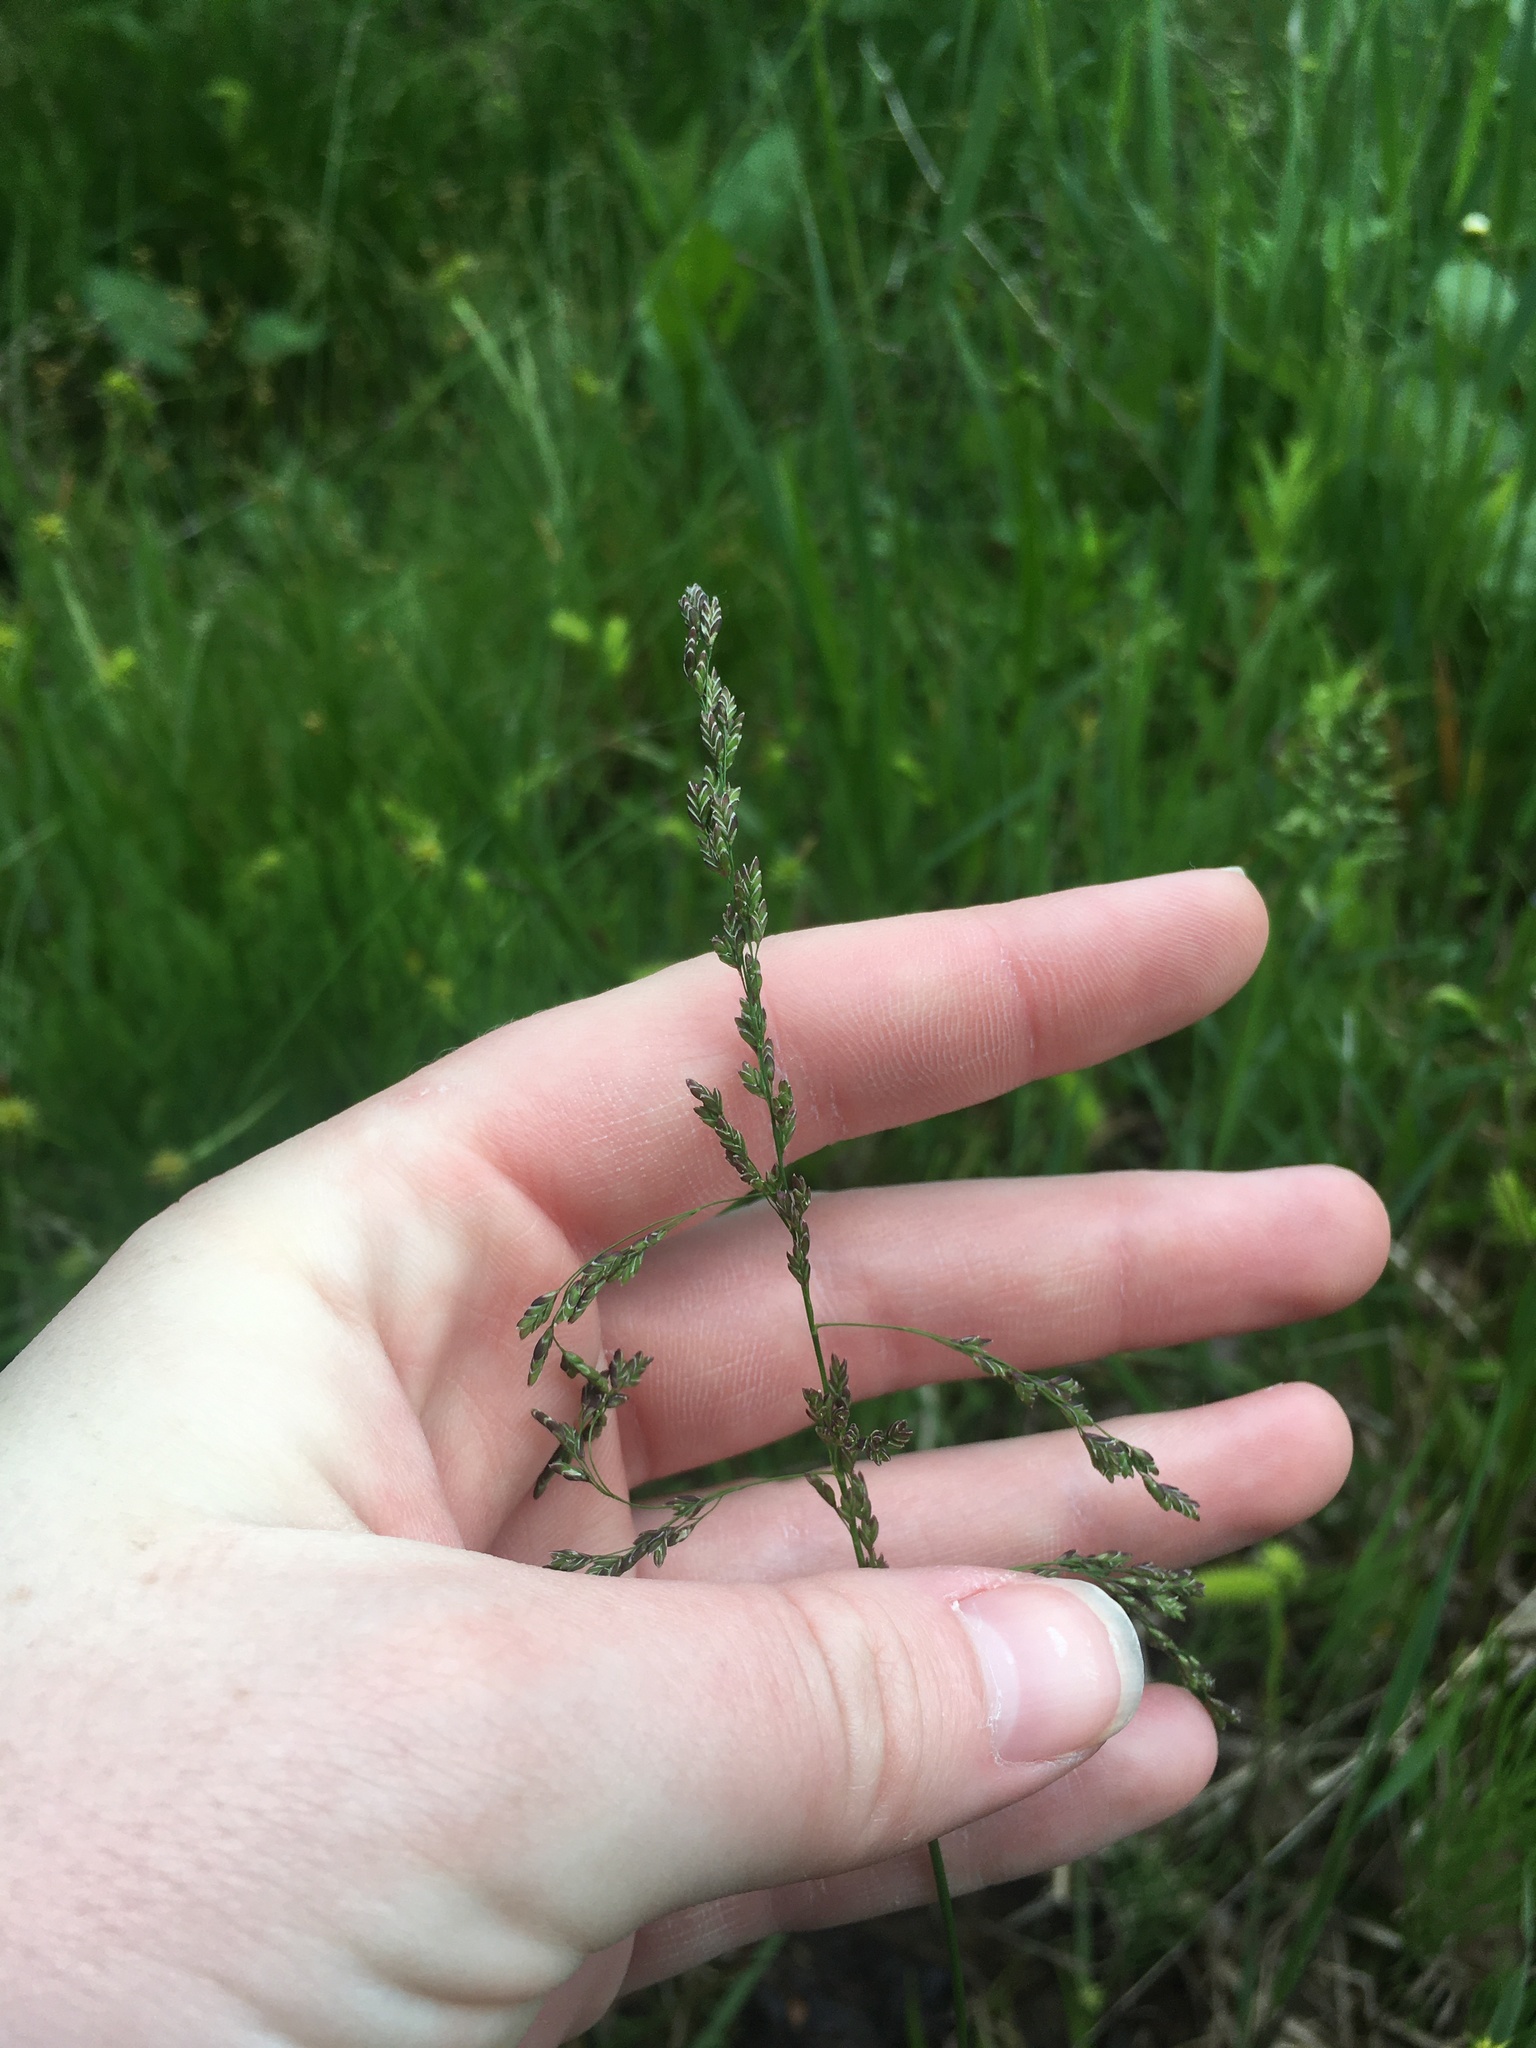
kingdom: Plantae
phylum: Tracheophyta
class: Liliopsida
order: Poales
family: Poaceae
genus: Glyceria
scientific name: Glyceria striata
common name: Fowl manna grass
